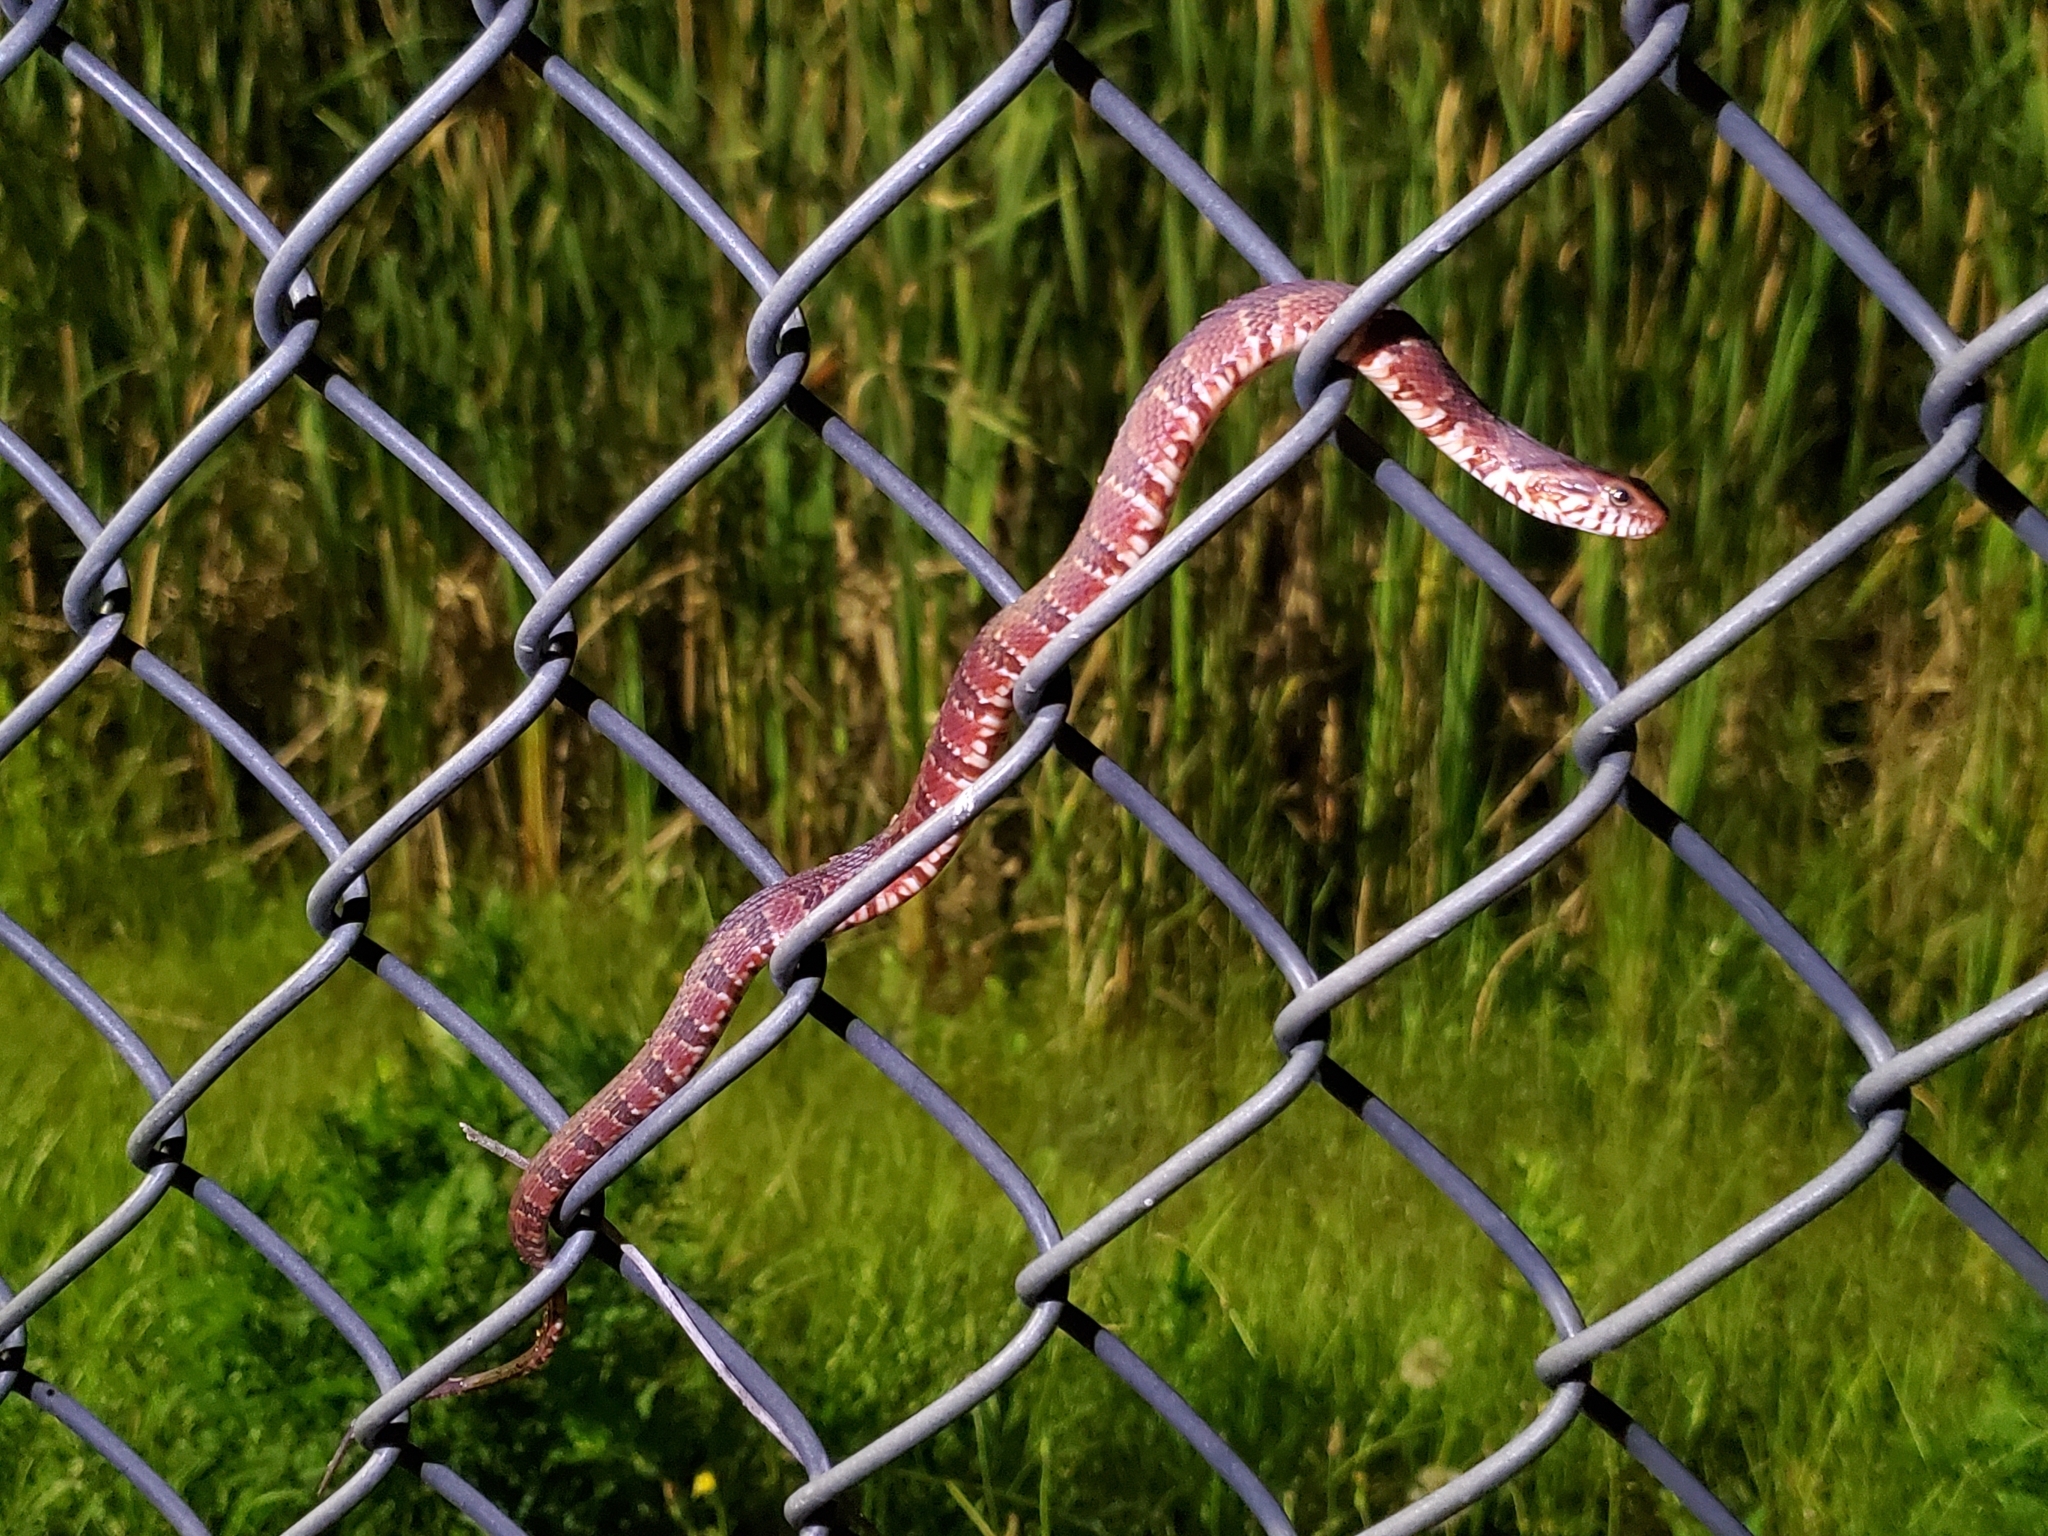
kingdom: Animalia
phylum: Chordata
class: Squamata
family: Colubridae
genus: Nerodia
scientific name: Nerodia fasciata
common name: Southern water snake
